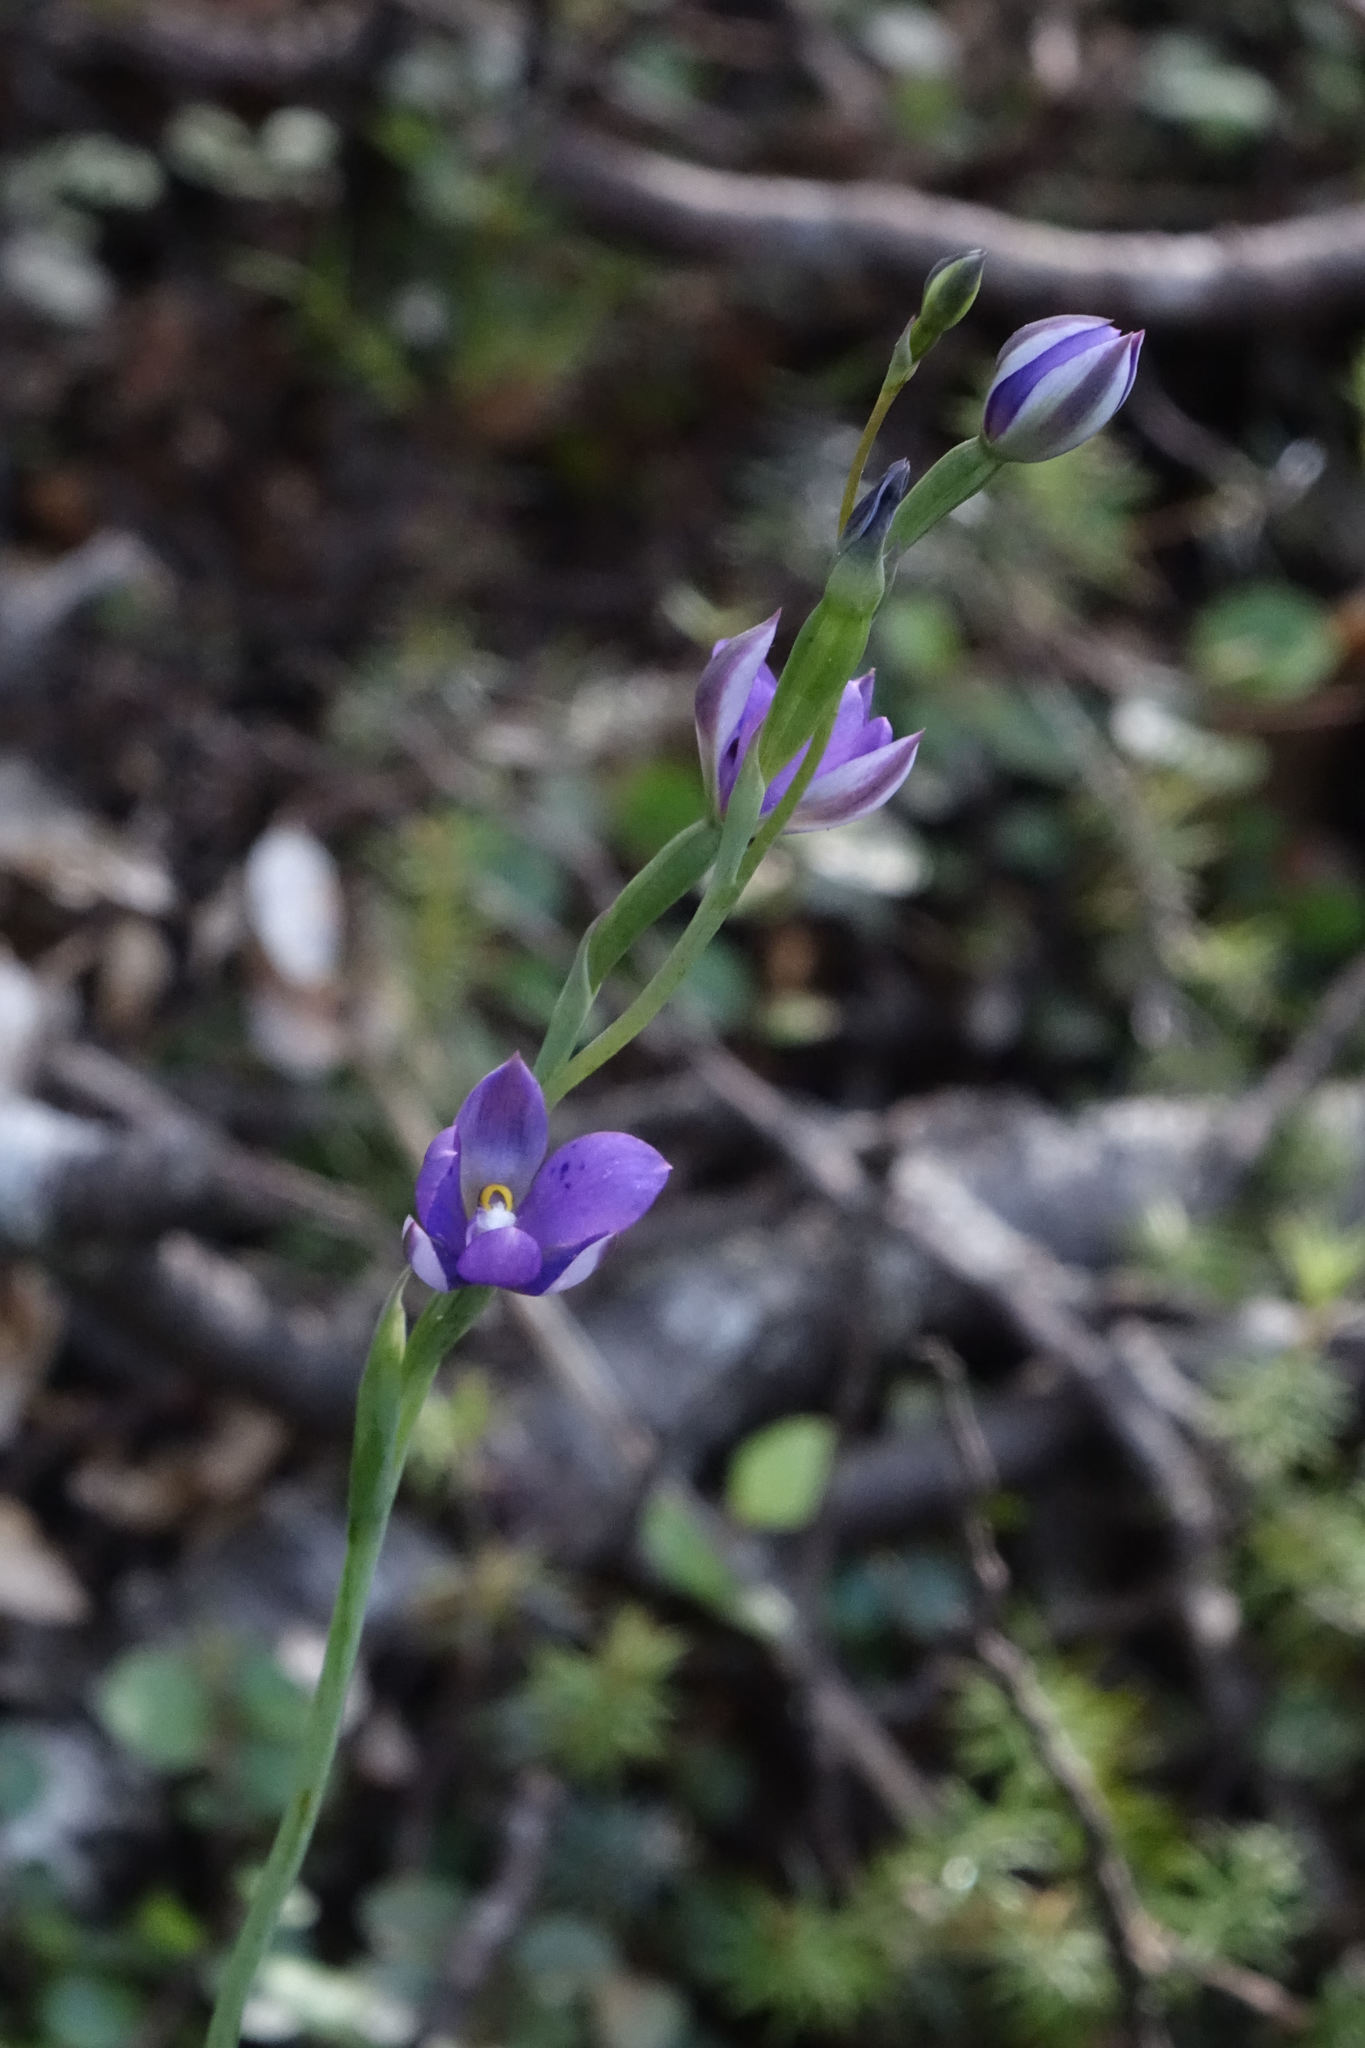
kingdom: Plantae
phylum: Tracheophyta
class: Liliopsida
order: Asparagales
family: Orchidaceae
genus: Thelymitra
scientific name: Thelymitra nervosa
